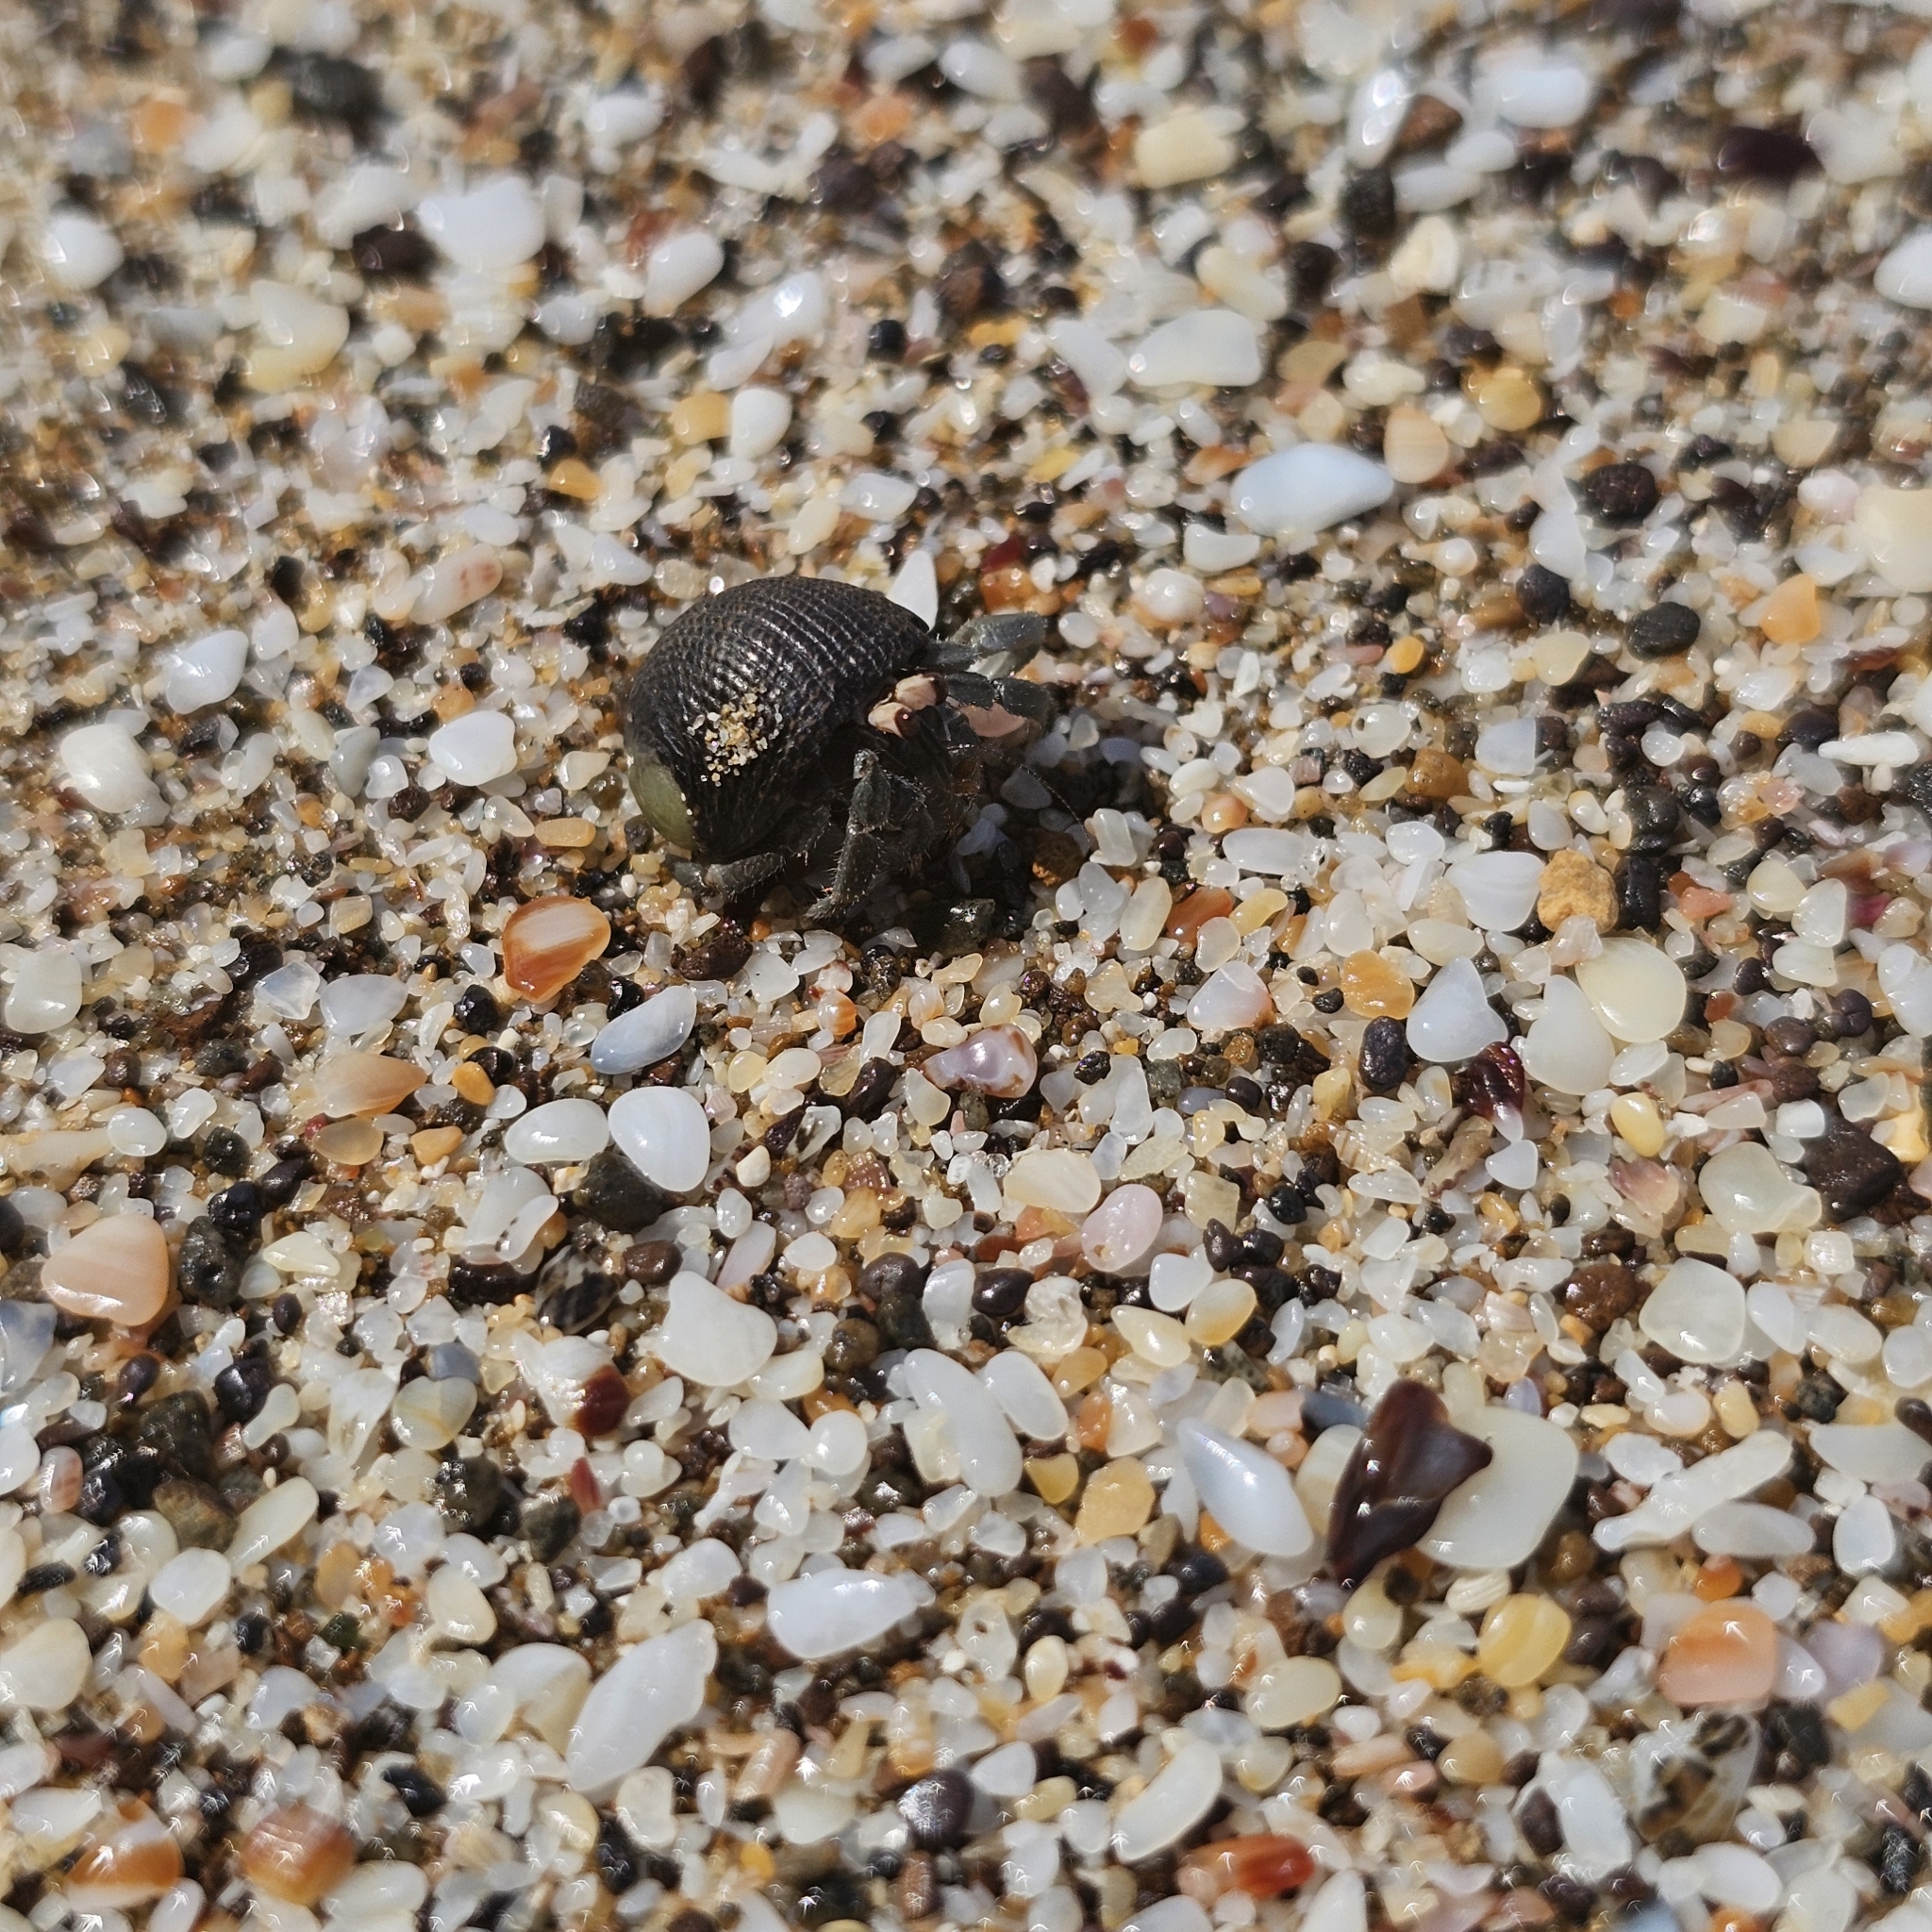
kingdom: Animalia
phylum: Arthropoda
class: Malacostraca
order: Decapoda
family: Coenobitidae
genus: Coenobita
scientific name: Coenobita compressus
